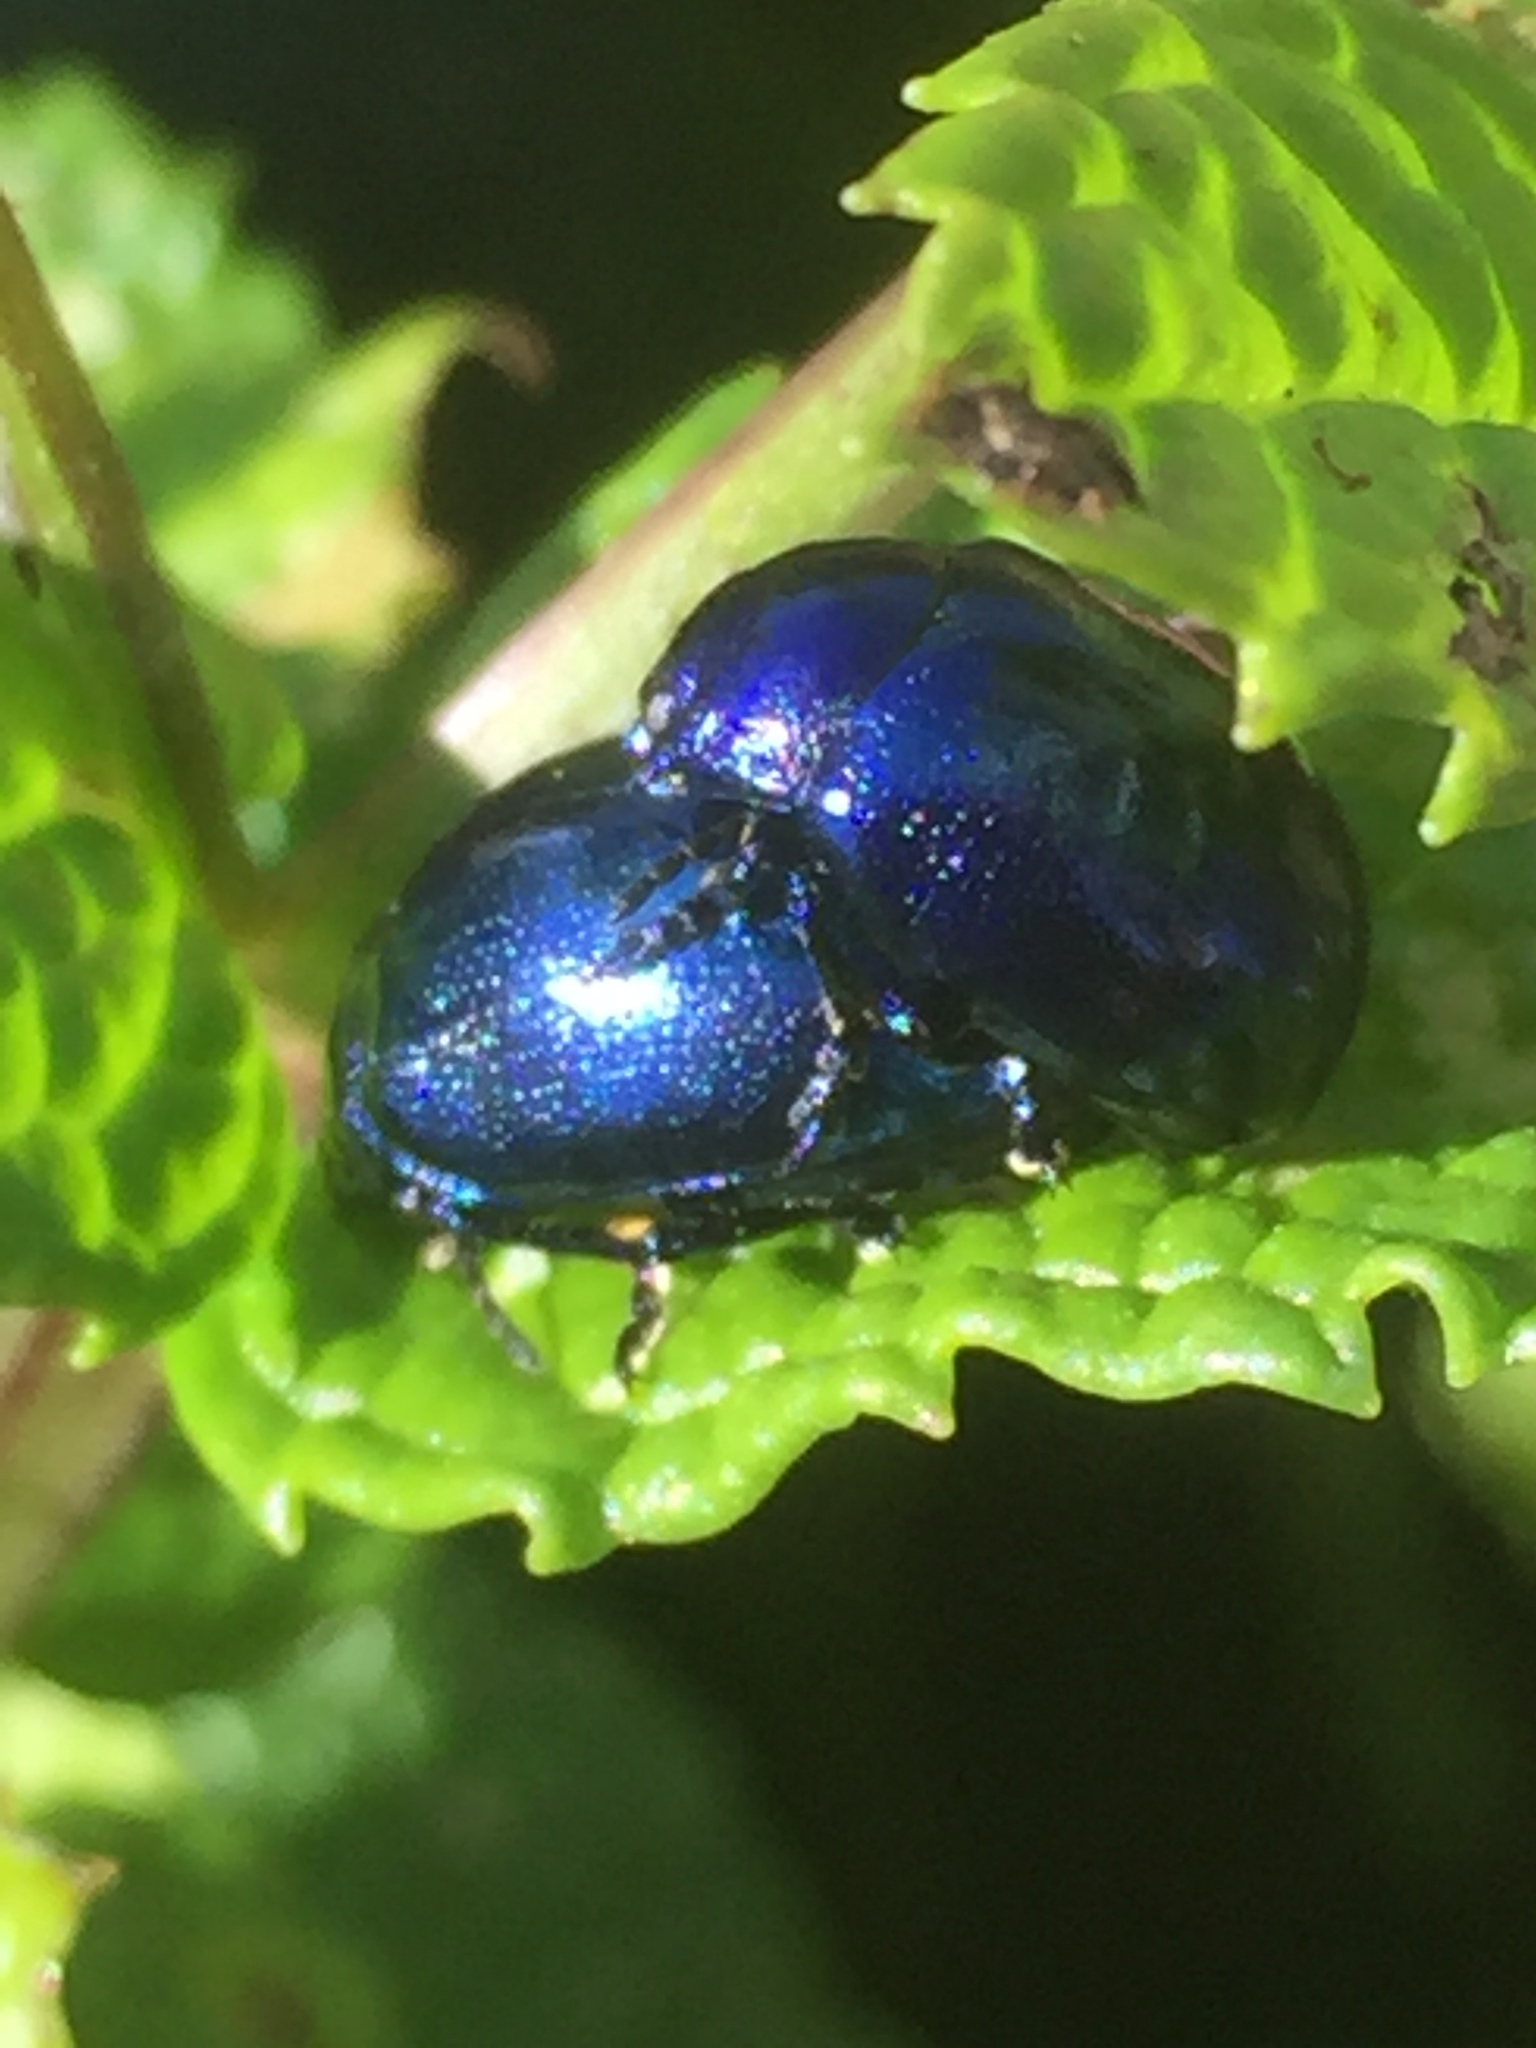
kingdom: Animalia
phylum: Arthropoda
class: Insecta
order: Coleoptera
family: Chrysomelidae
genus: Chrysolina
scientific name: Chrysolina coerulans
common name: Blue mint beetle
